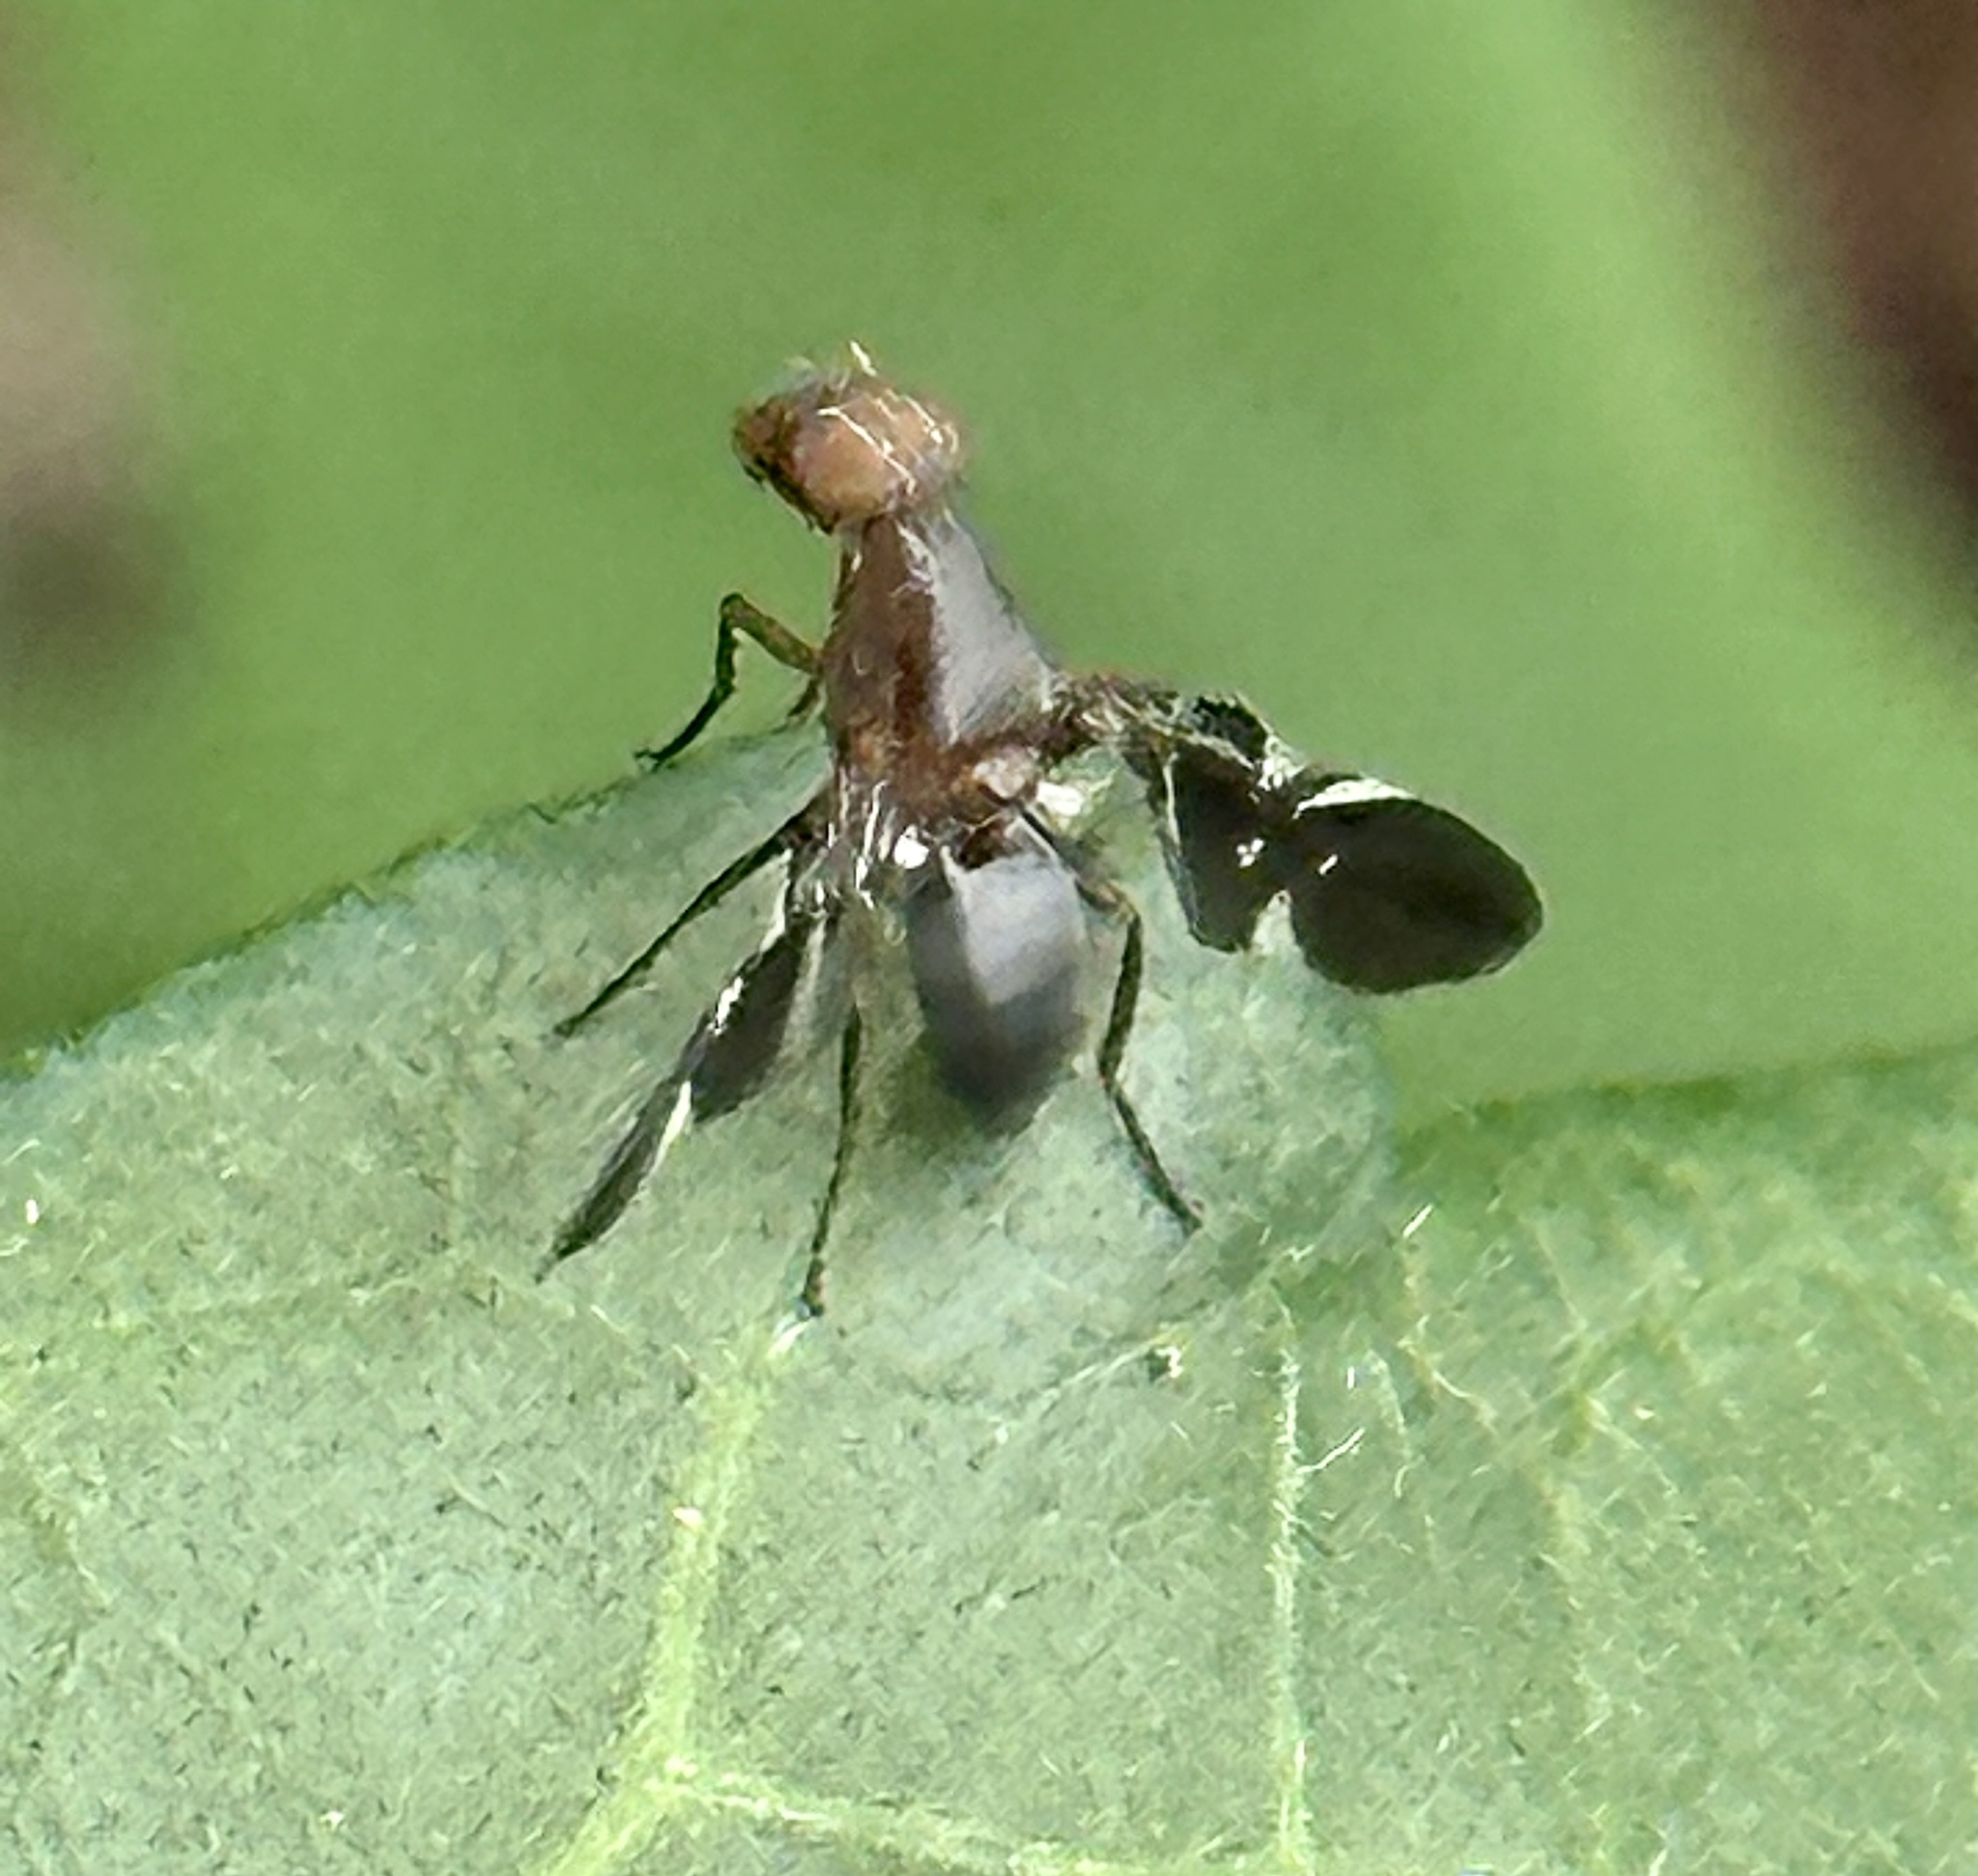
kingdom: Animalia
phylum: Arthropoda
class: Insecta
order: Diptera
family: Ulidiidae
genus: Delphinia
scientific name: Delphinia picta
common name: Common picture-winged fly
